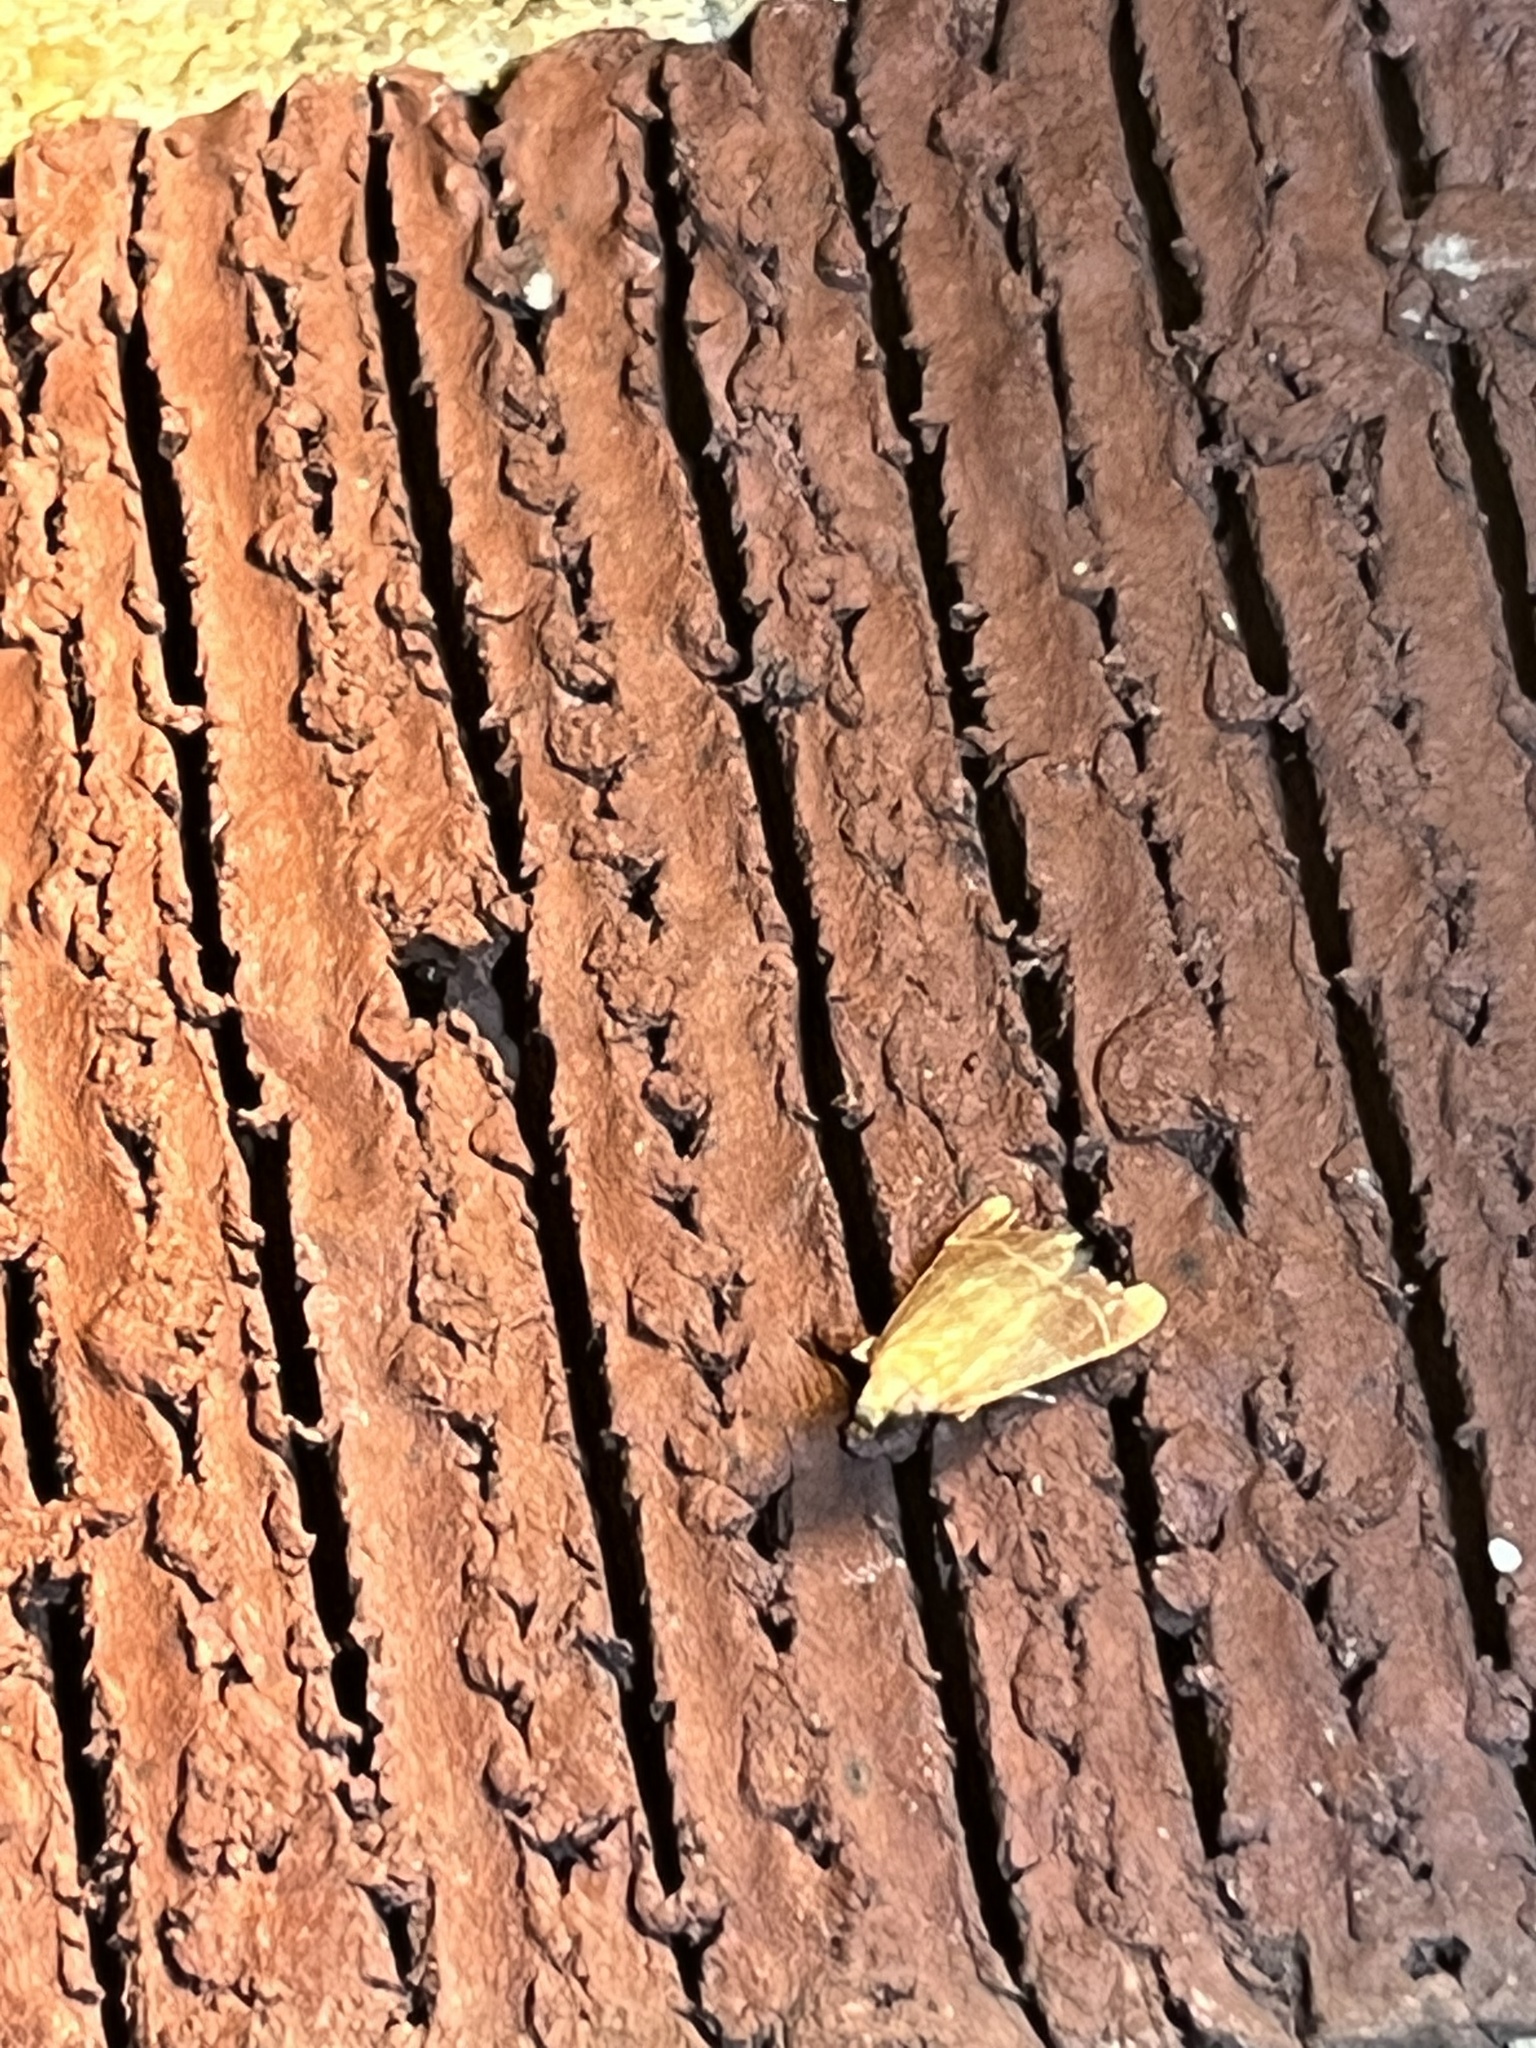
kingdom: Animalia
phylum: Arthropoda
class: Insecta
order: Lepidoptera
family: Pyralidae
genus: Arta
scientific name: Arta statalis
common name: Posturing arta moth
